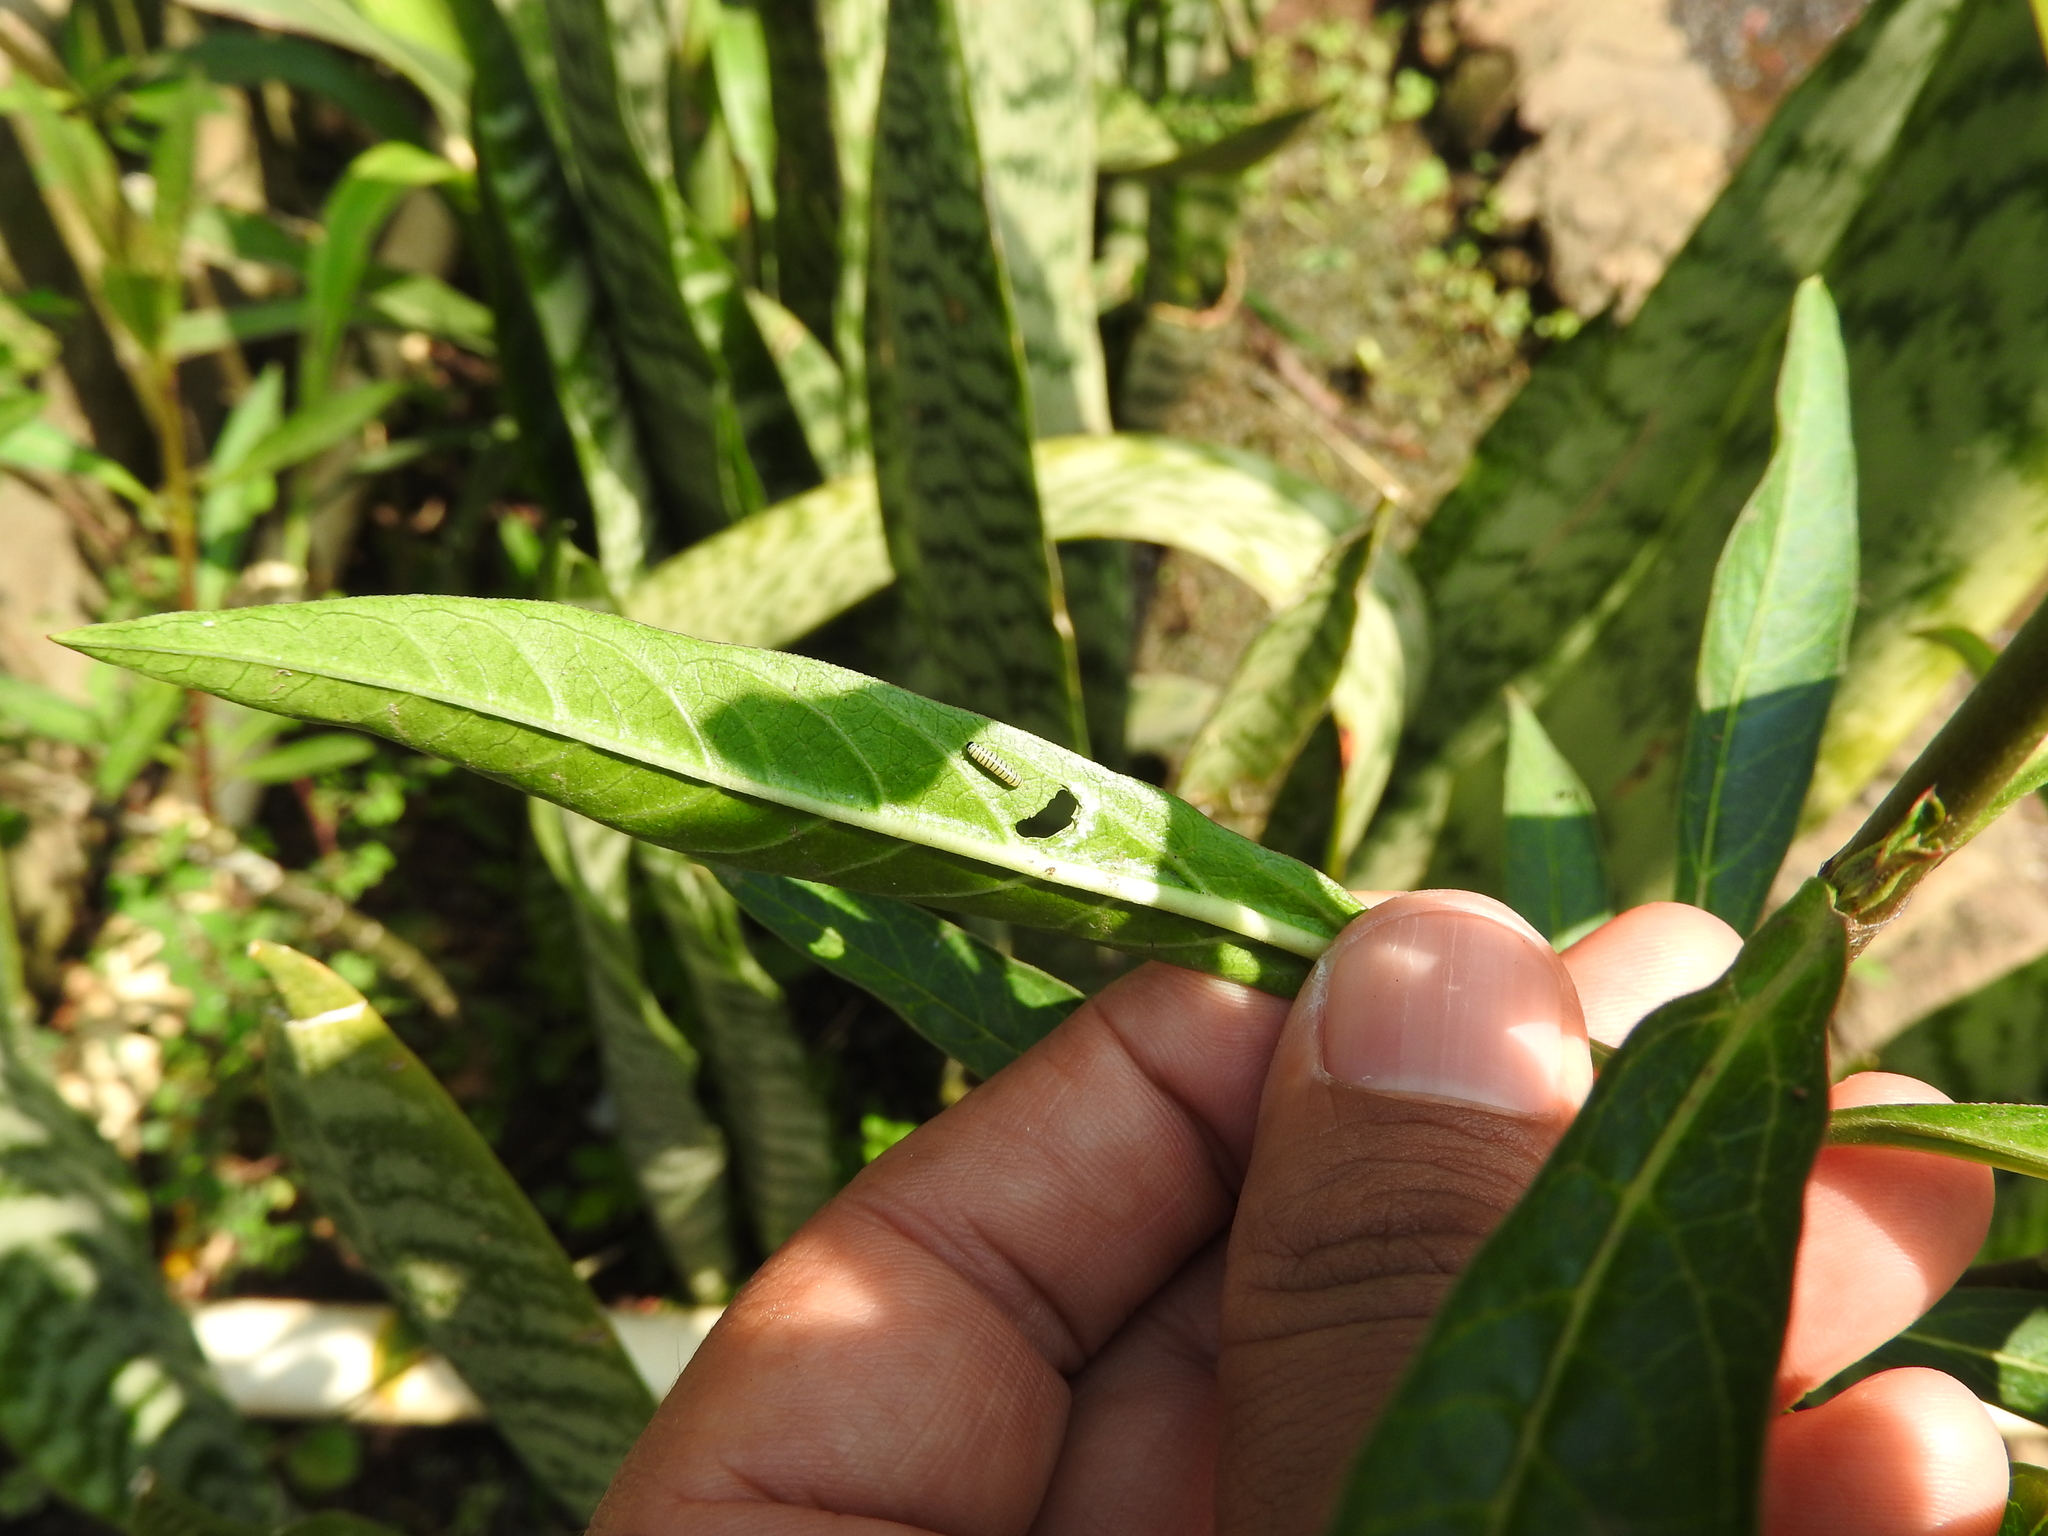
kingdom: Animalia
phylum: Arthropoda
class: Insecta
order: Lepidoptera
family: Nymphalidae
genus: Danaus
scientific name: Danaus plexippus
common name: Monarch
